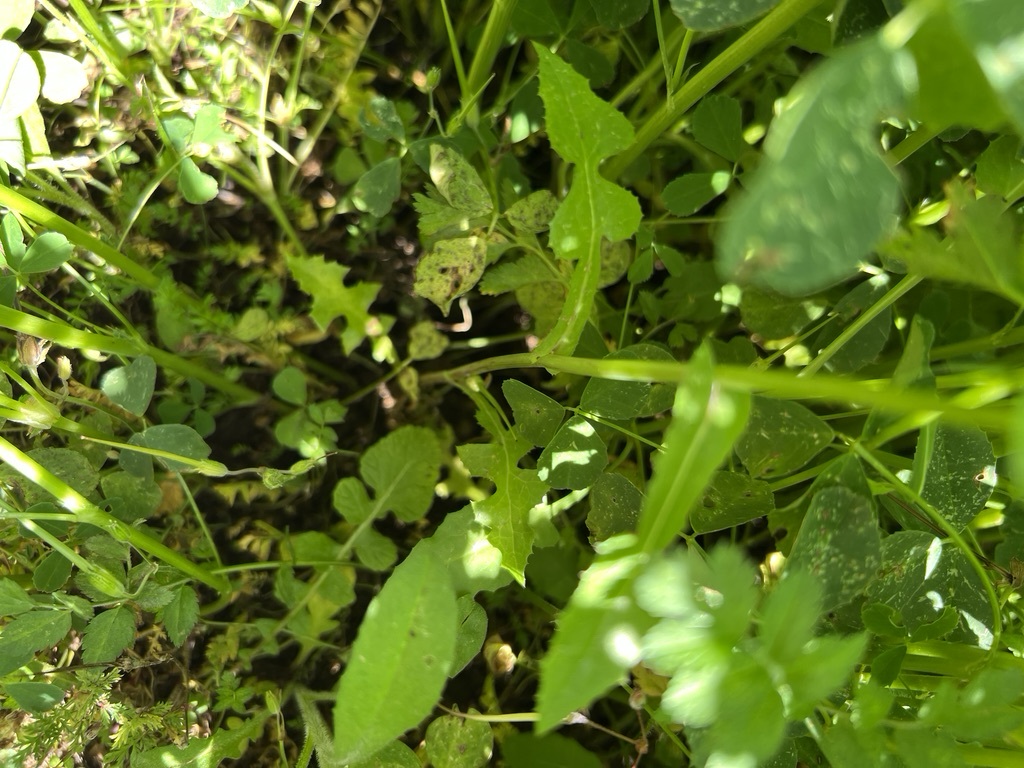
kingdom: Plantae
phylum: Tracheophyta
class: Magnoliopsida
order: Asterales
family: Asteraceae
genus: Sonchus
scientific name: Sonchus oleraceus
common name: Common sowthistle
